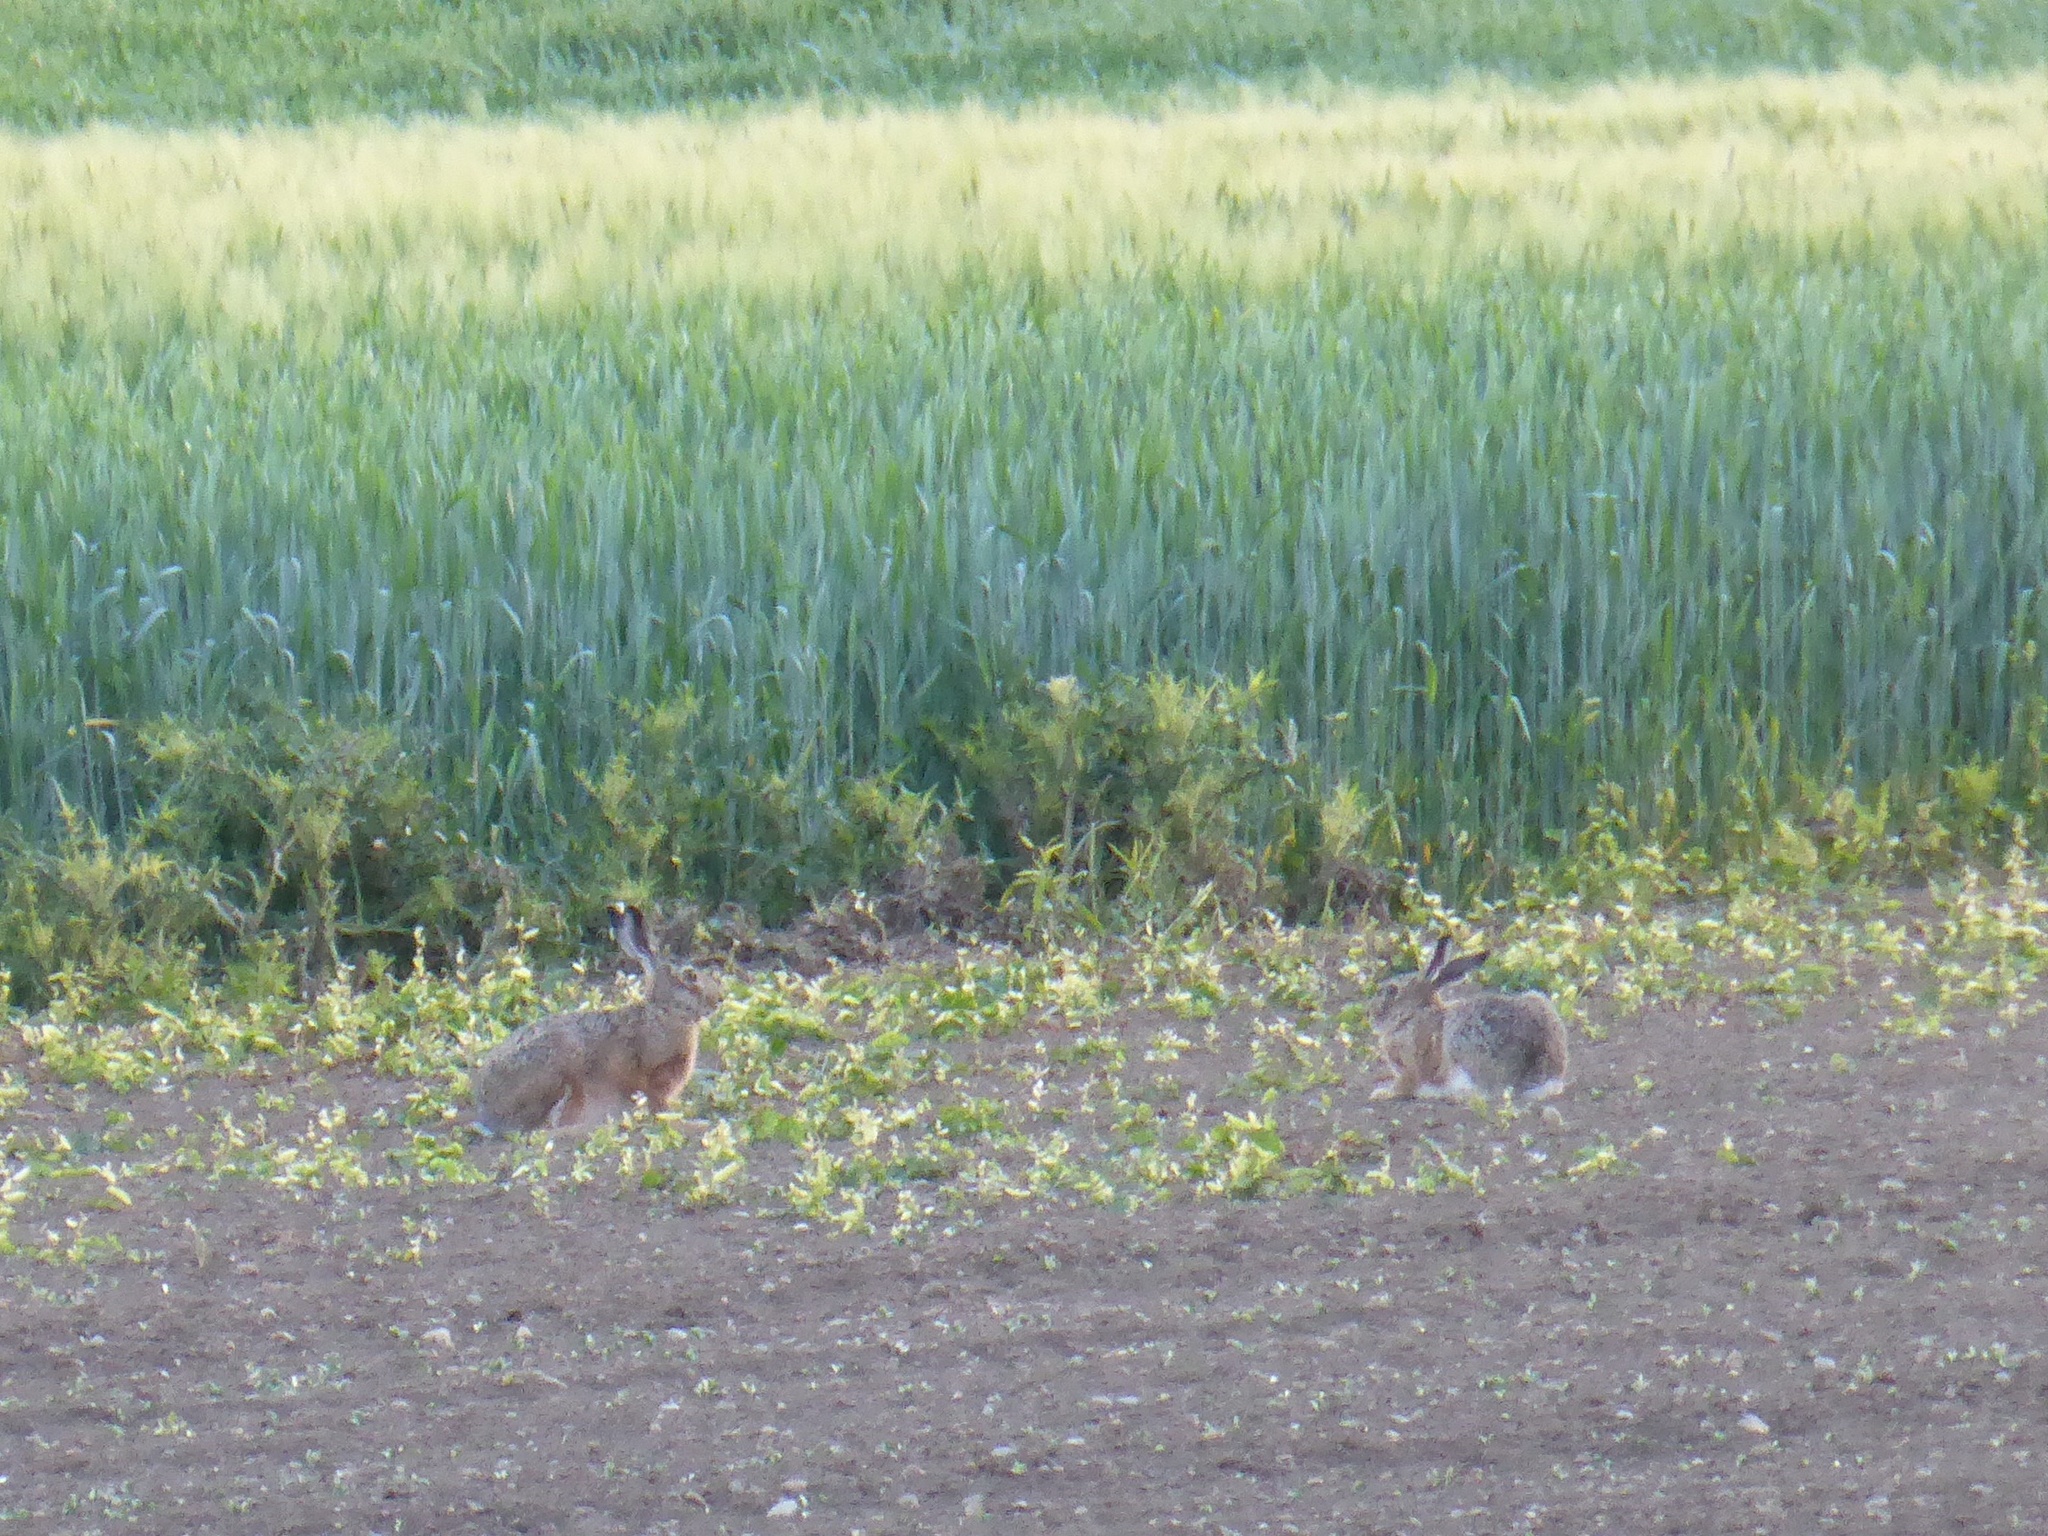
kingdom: Animalia
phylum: Chordata
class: Mammalia
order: Lagomorpha
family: Leporidae
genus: Lepus
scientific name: Lepus europaeus
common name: European hare
